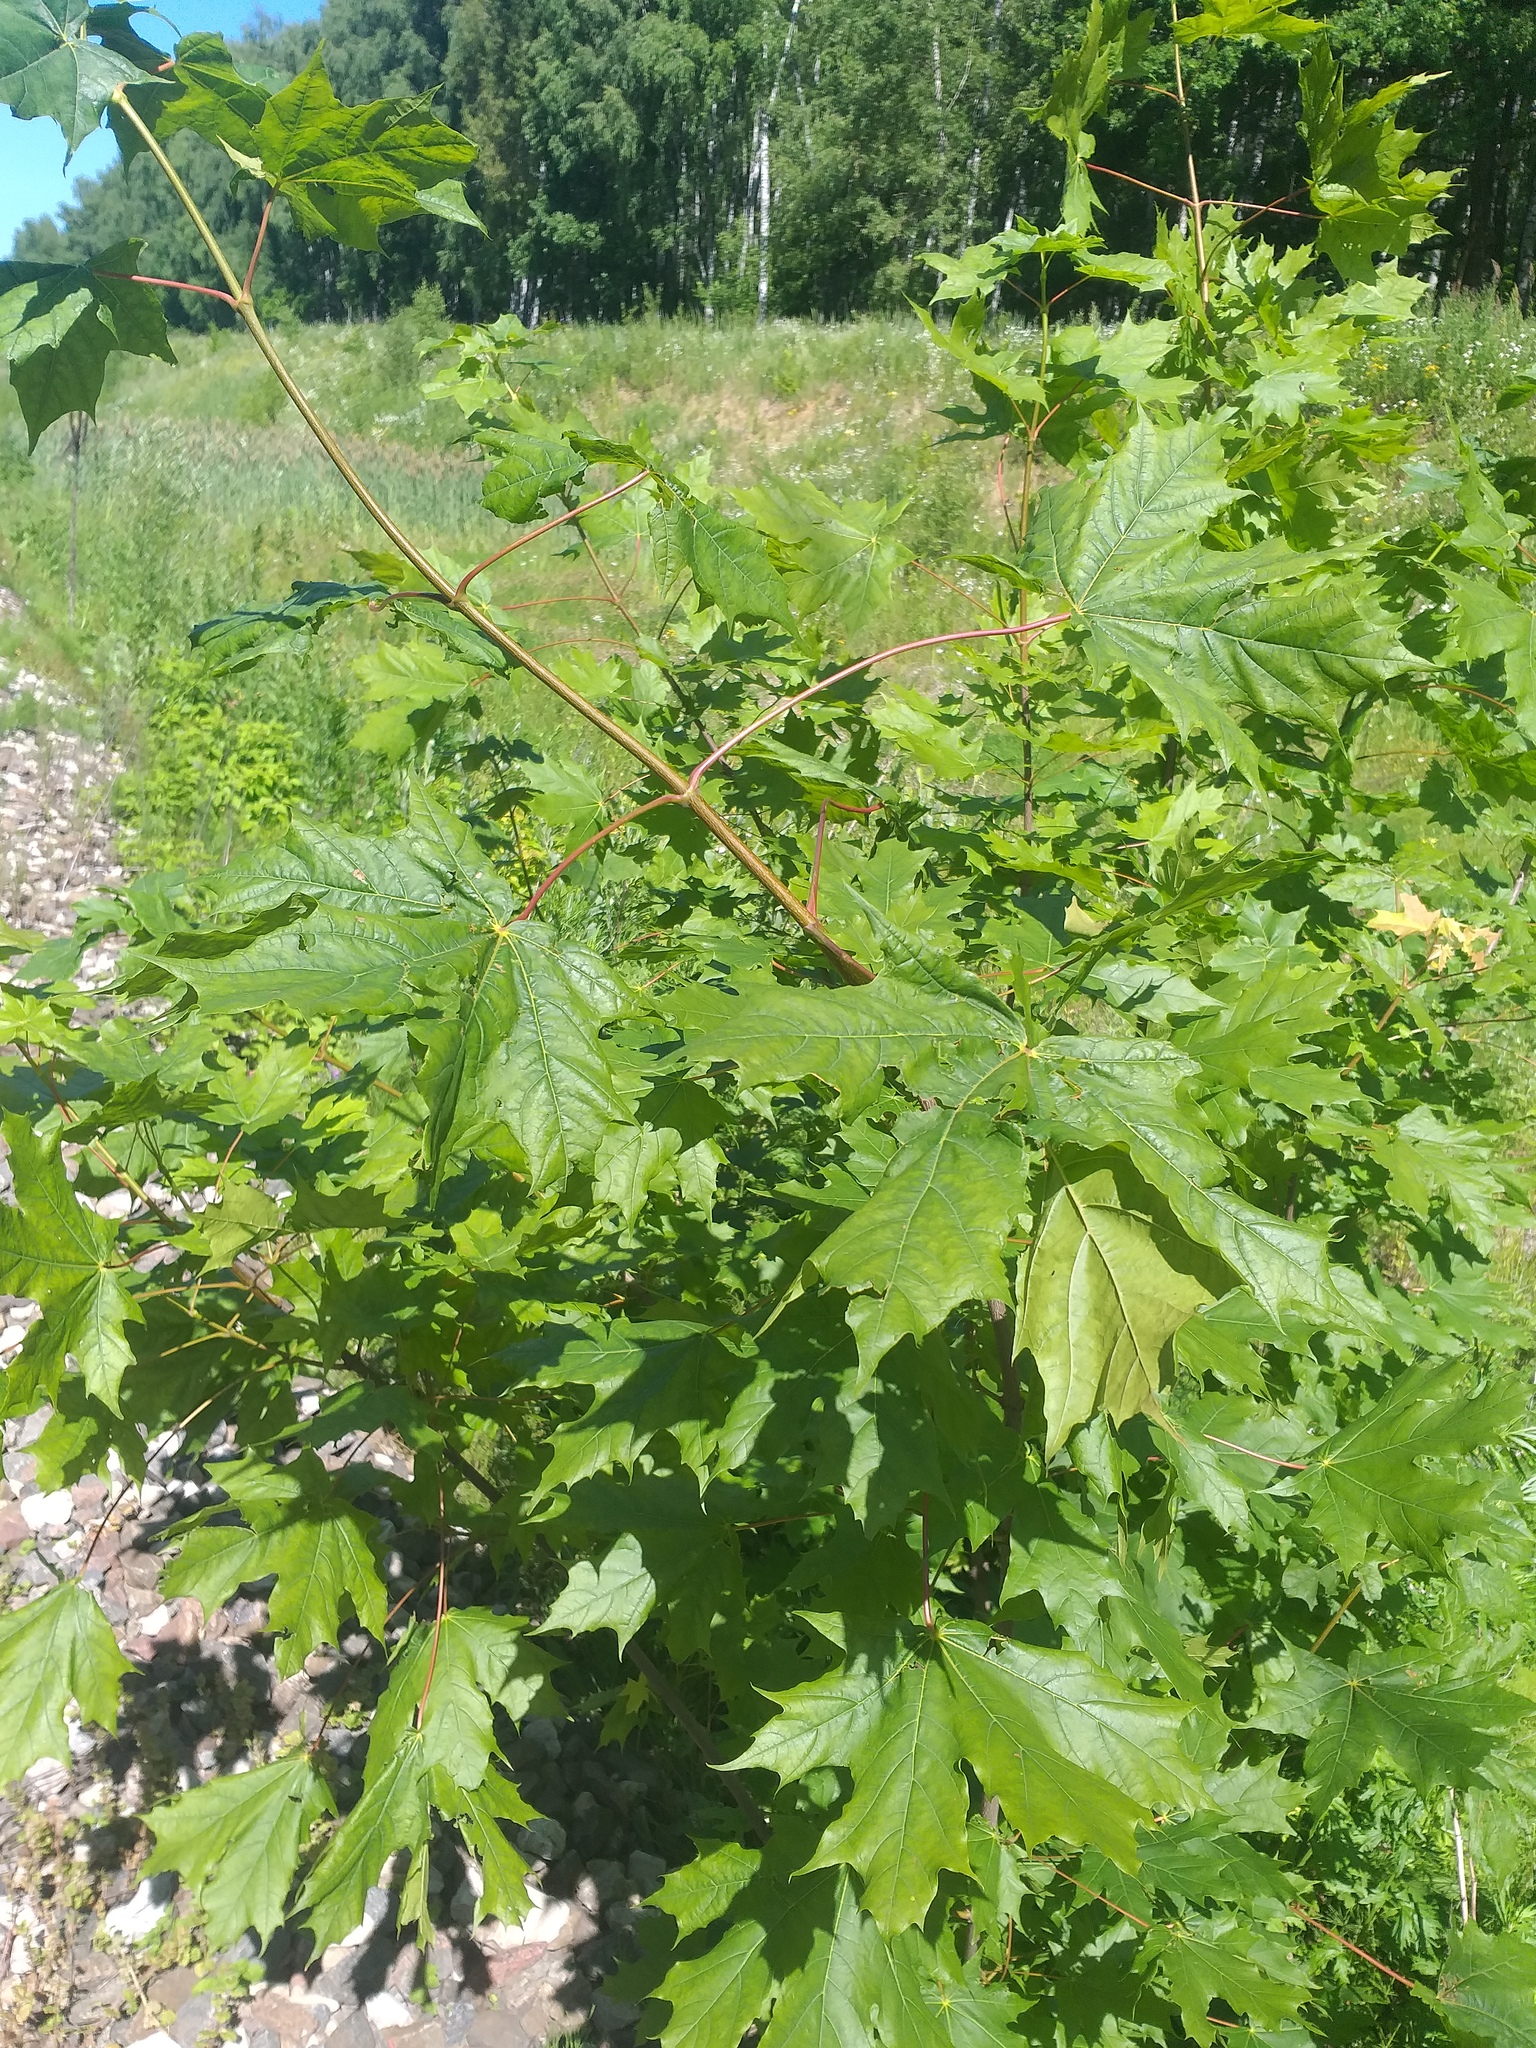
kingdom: Plantae
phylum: Tracheophyta
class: Magnoliopsida
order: Sapindales
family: Sapindaceae
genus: Acer
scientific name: Acer platanoides
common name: Norway maple
